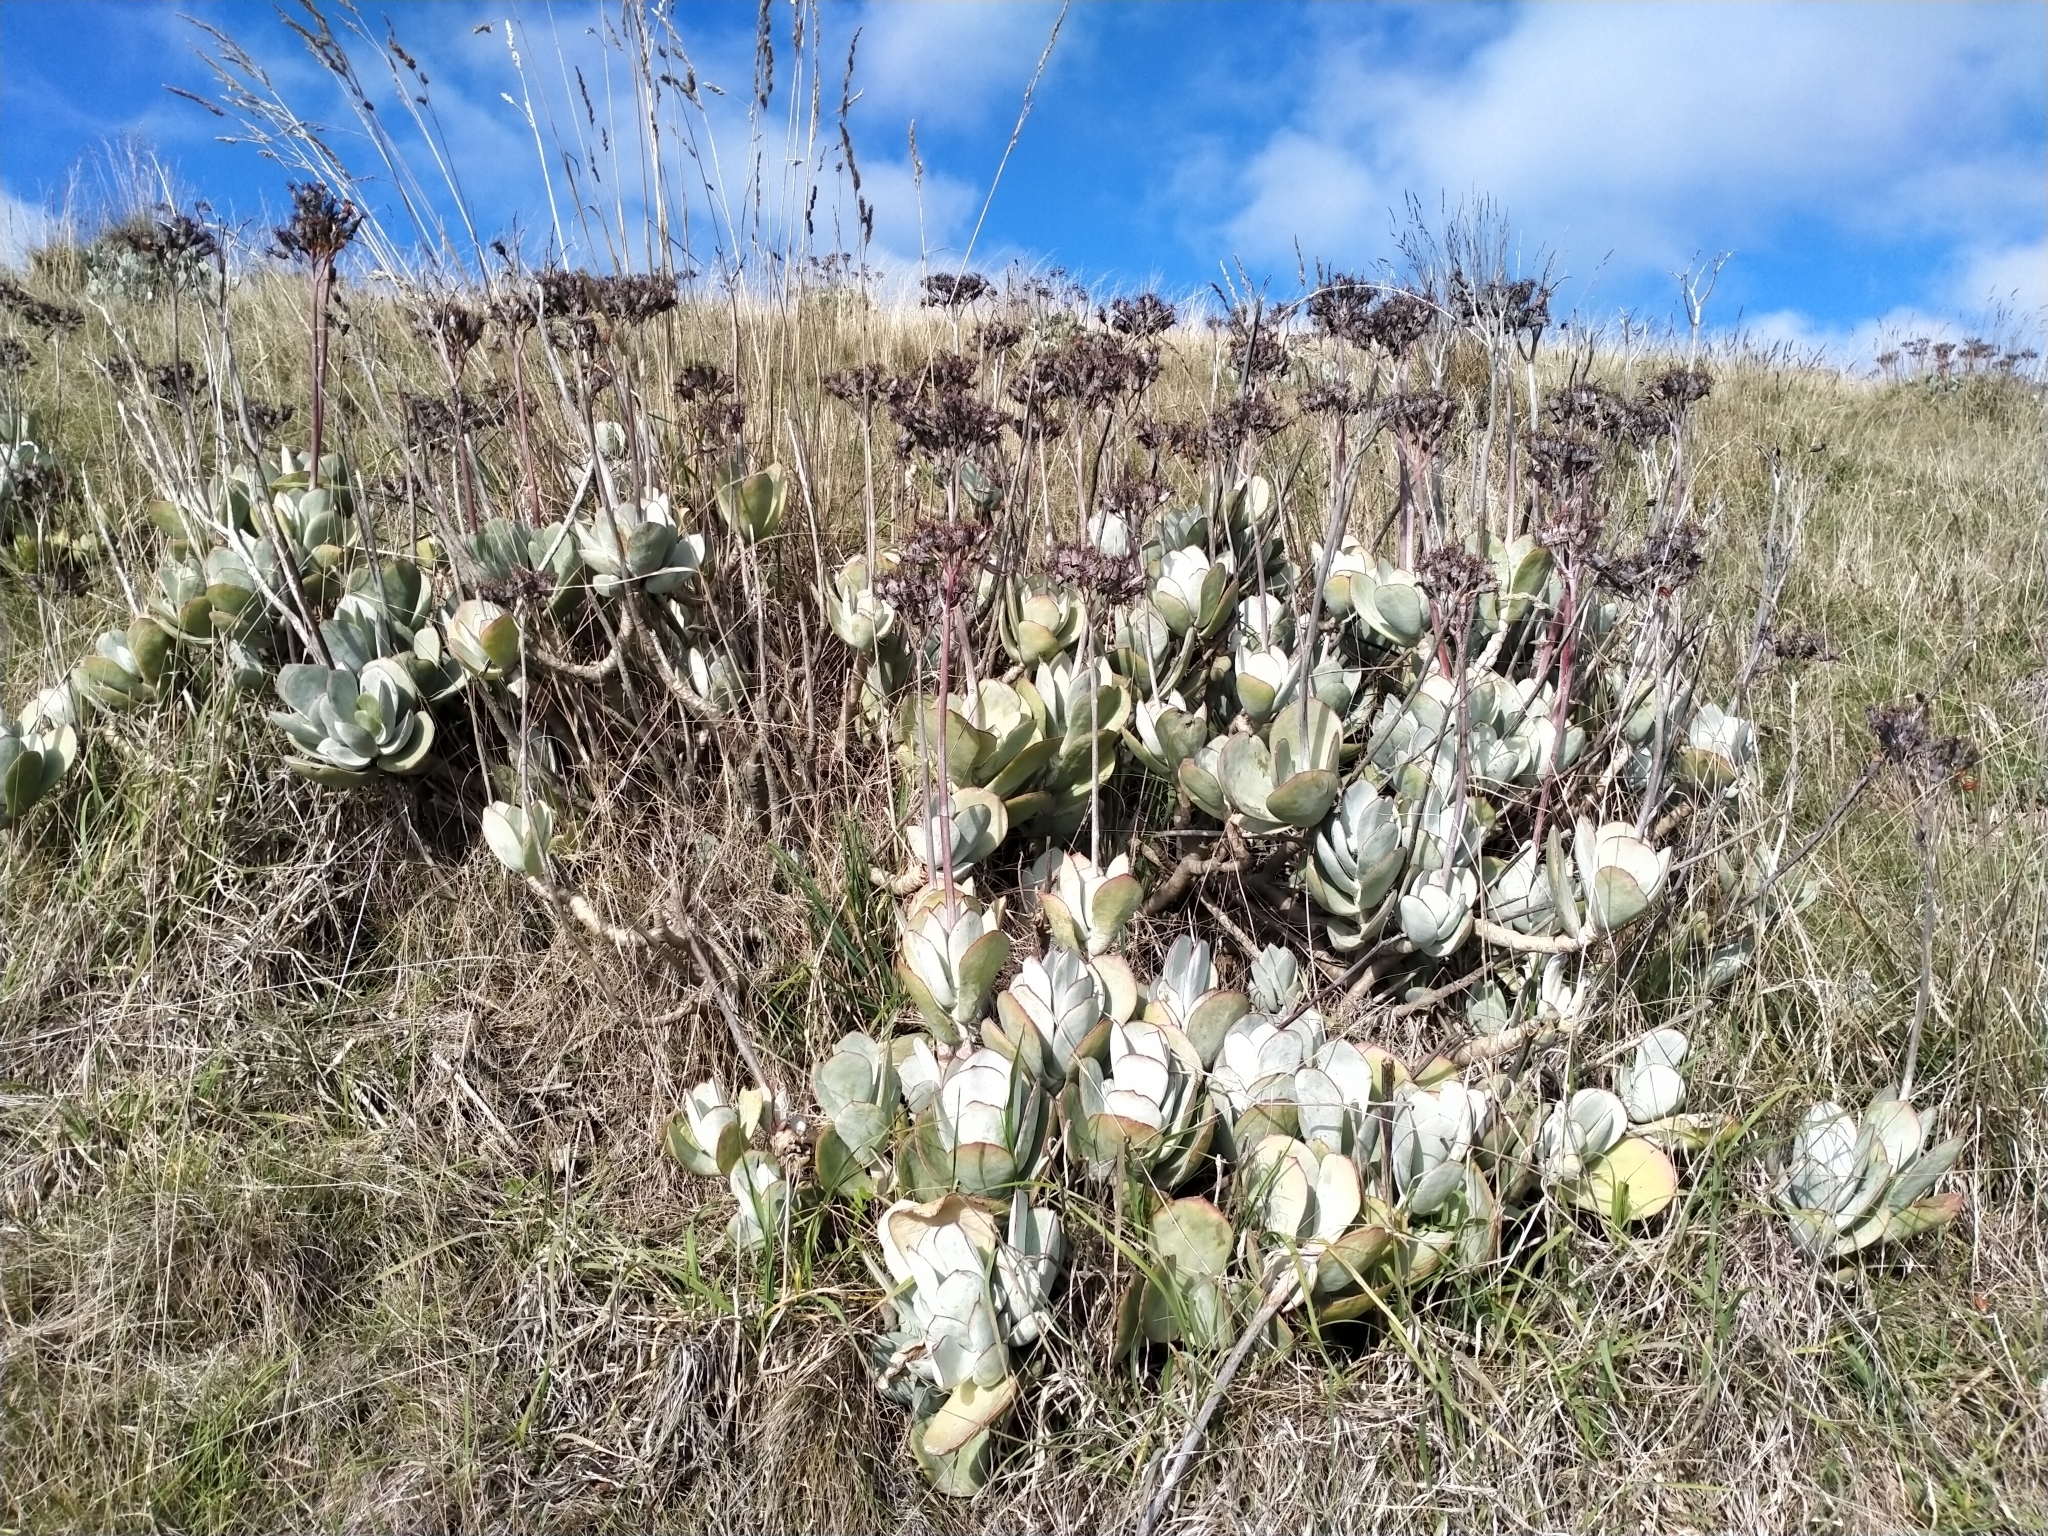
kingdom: Plantae
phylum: Tracheophyta
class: Magnoliopsida
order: Saxifragales
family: Crassulaceae
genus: Cotyledon
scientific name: Cotyledon orbiculata
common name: Pig's ear
